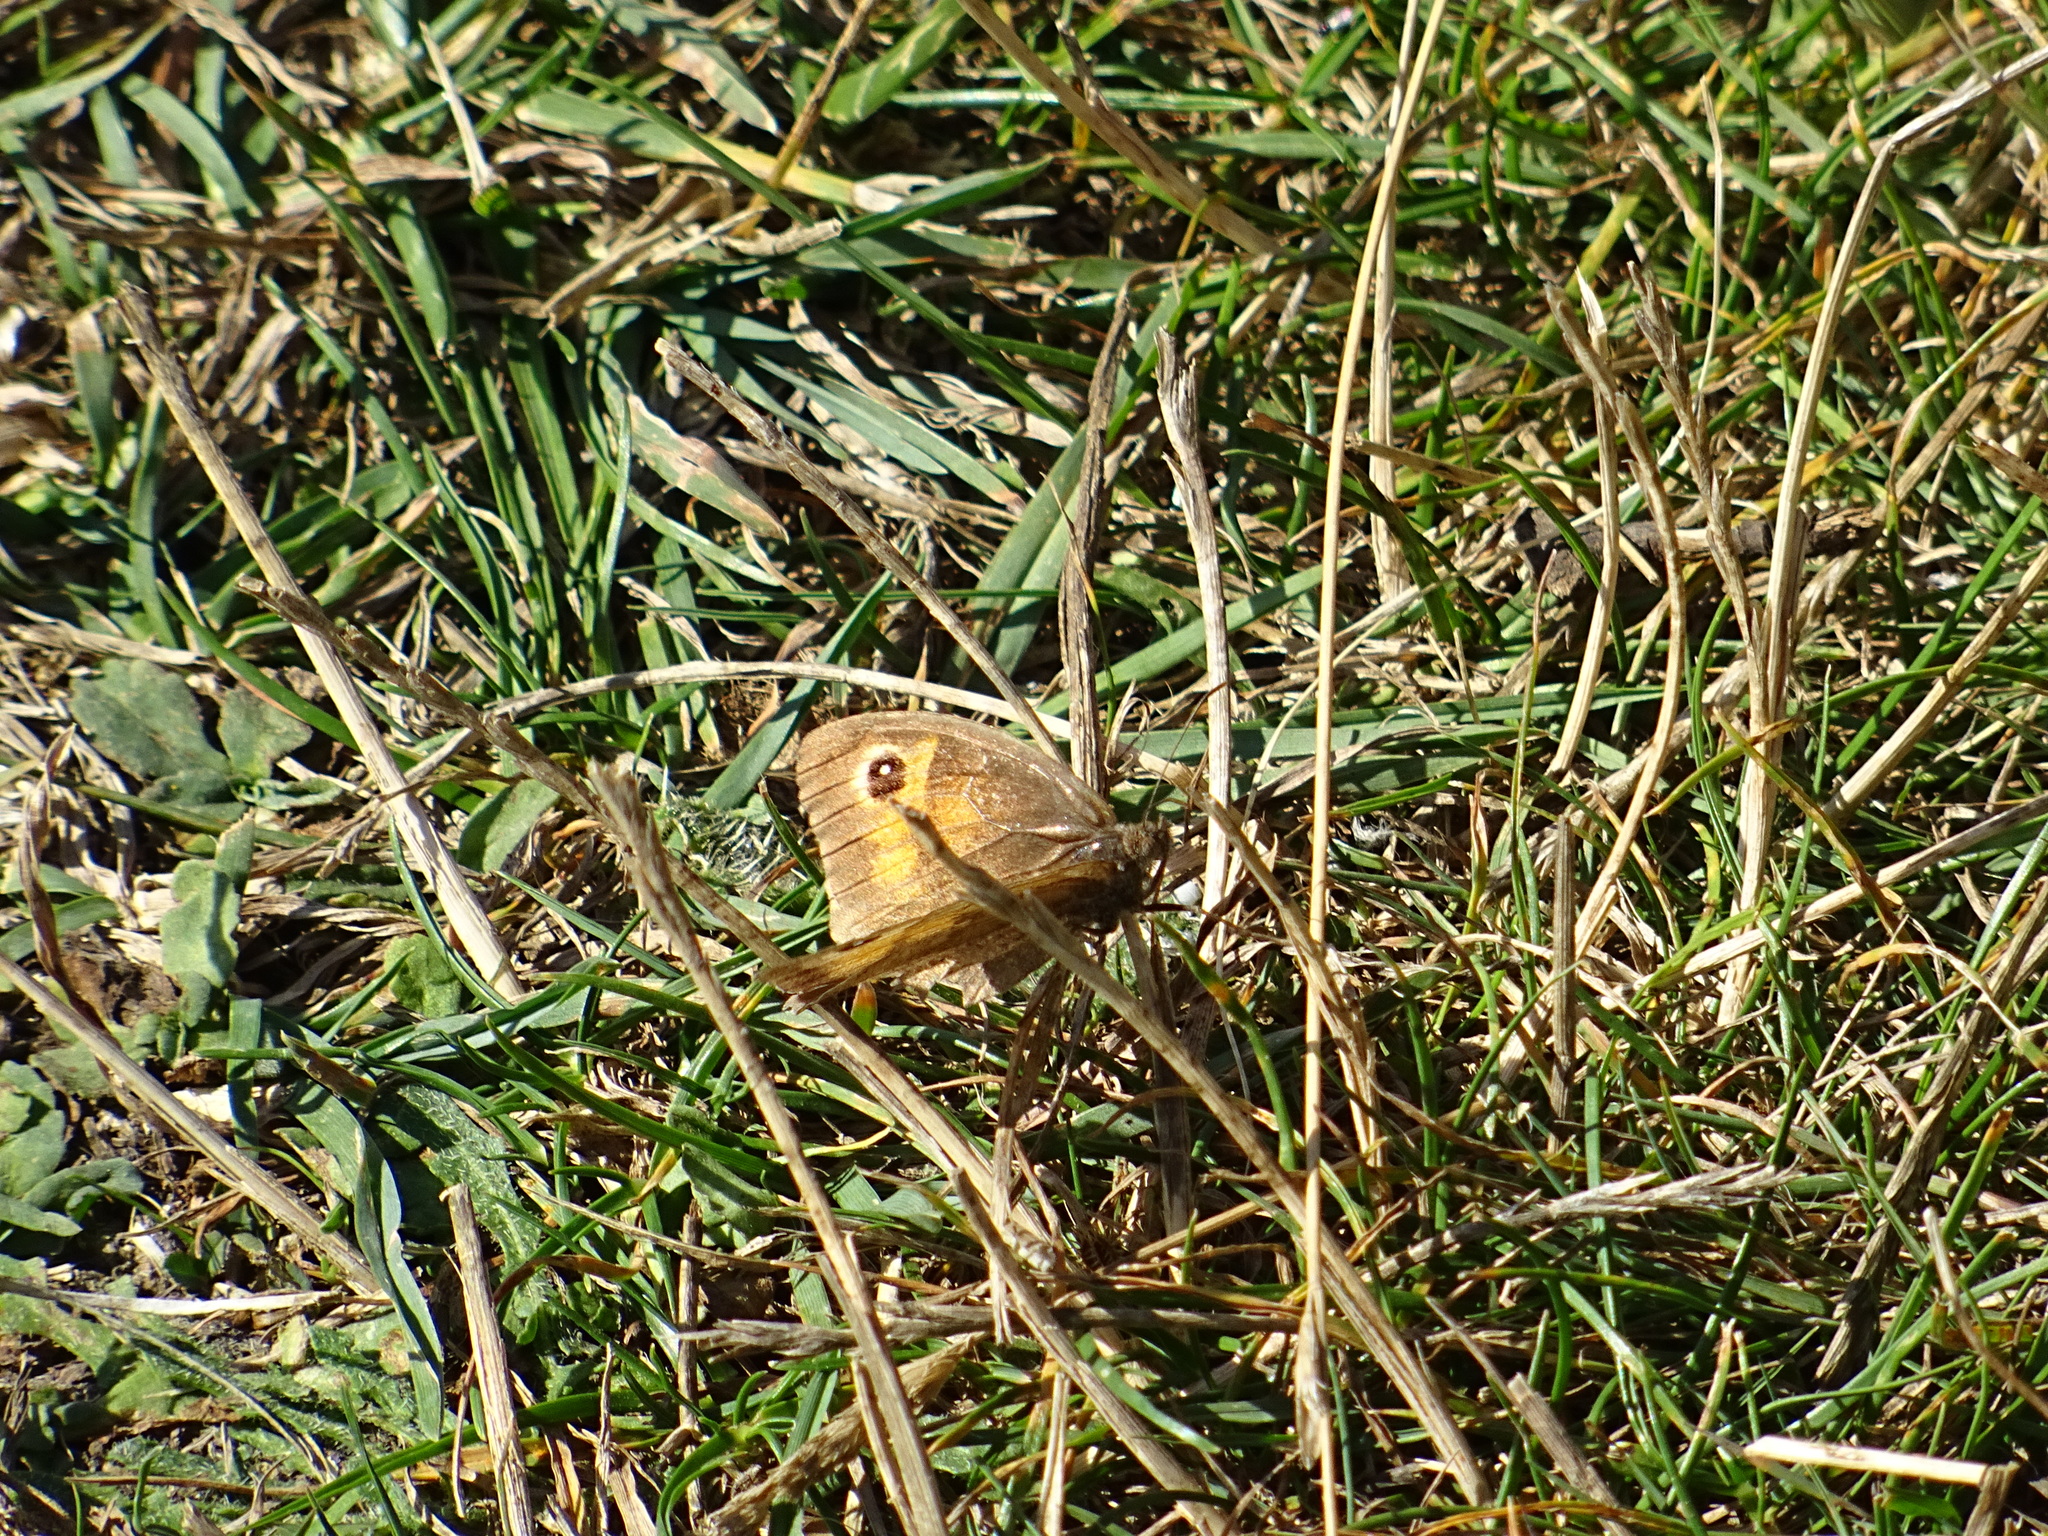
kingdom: Animalia
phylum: Arthropoda
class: Insecta
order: Lepidoptera
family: Nymphalidae
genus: Maniola
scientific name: Maniola jurtina
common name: Meadow brown
